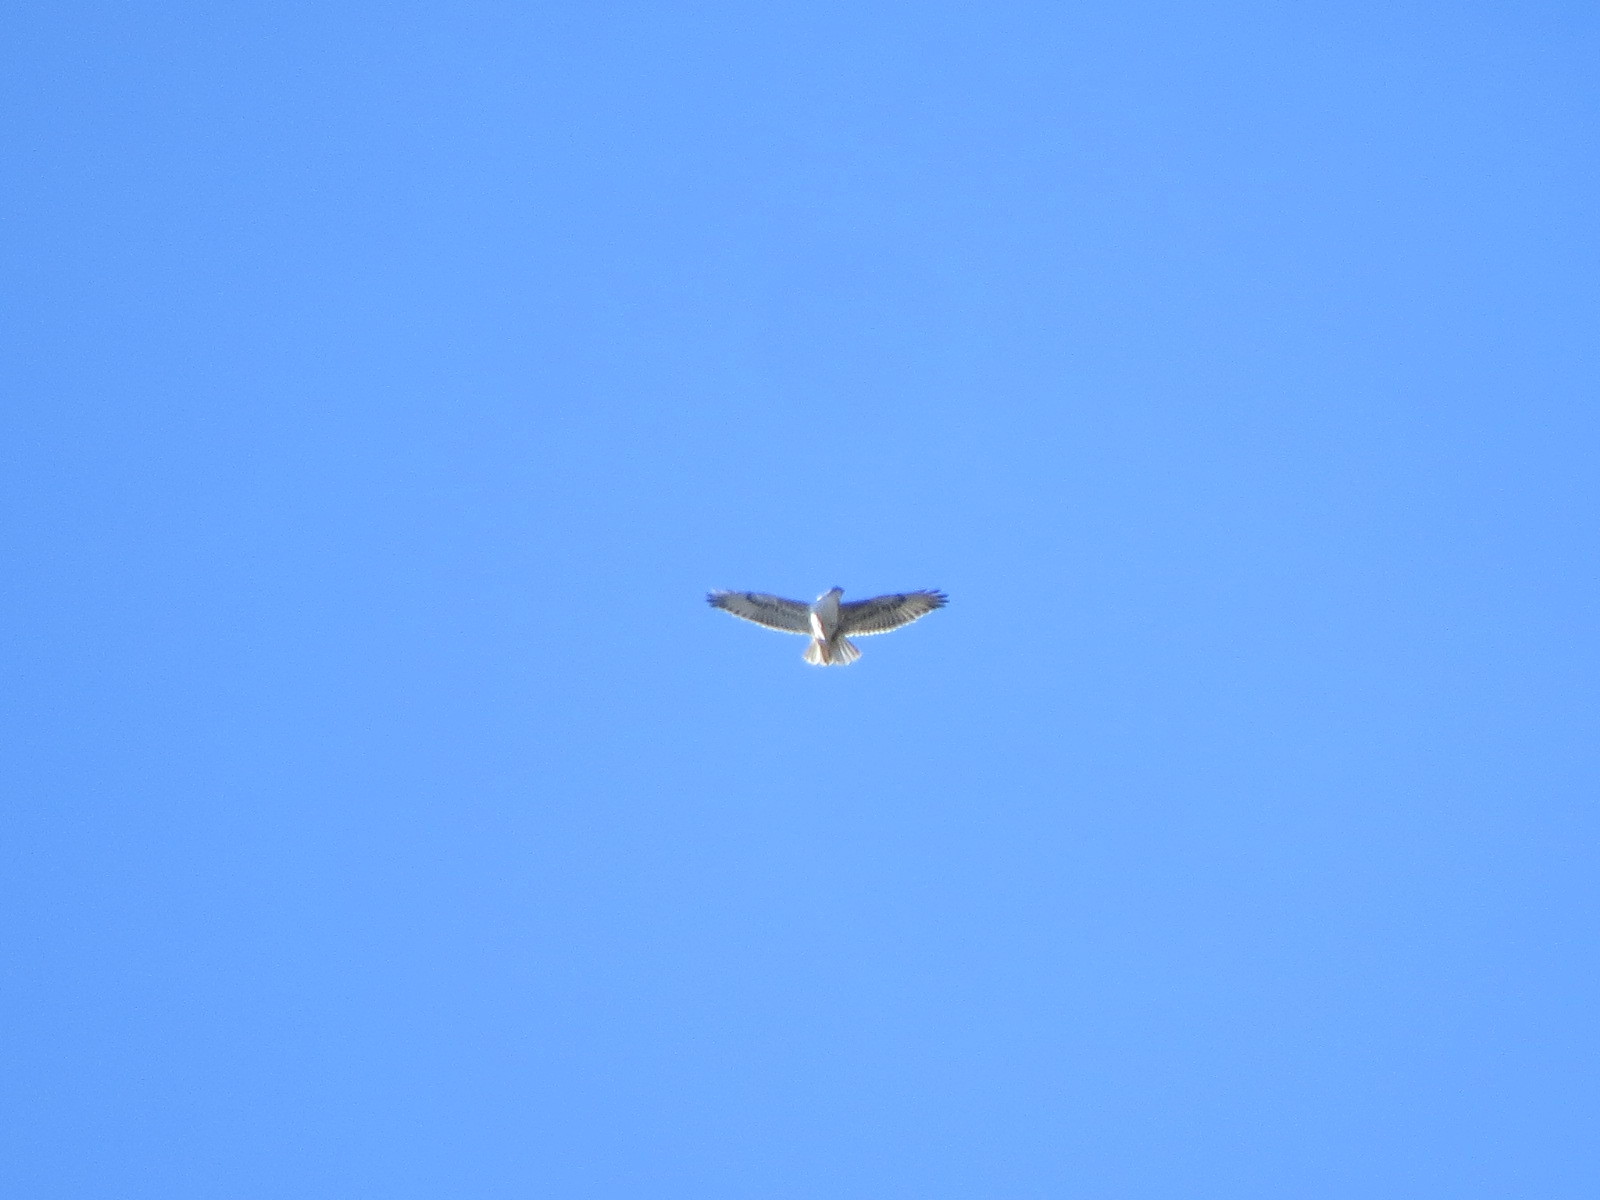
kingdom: Animalia
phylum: Chordata
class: Aves
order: Accipitriformes
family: Accipitridae
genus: Buteo
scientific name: Buteo regalis
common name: Ferruginous hawk
